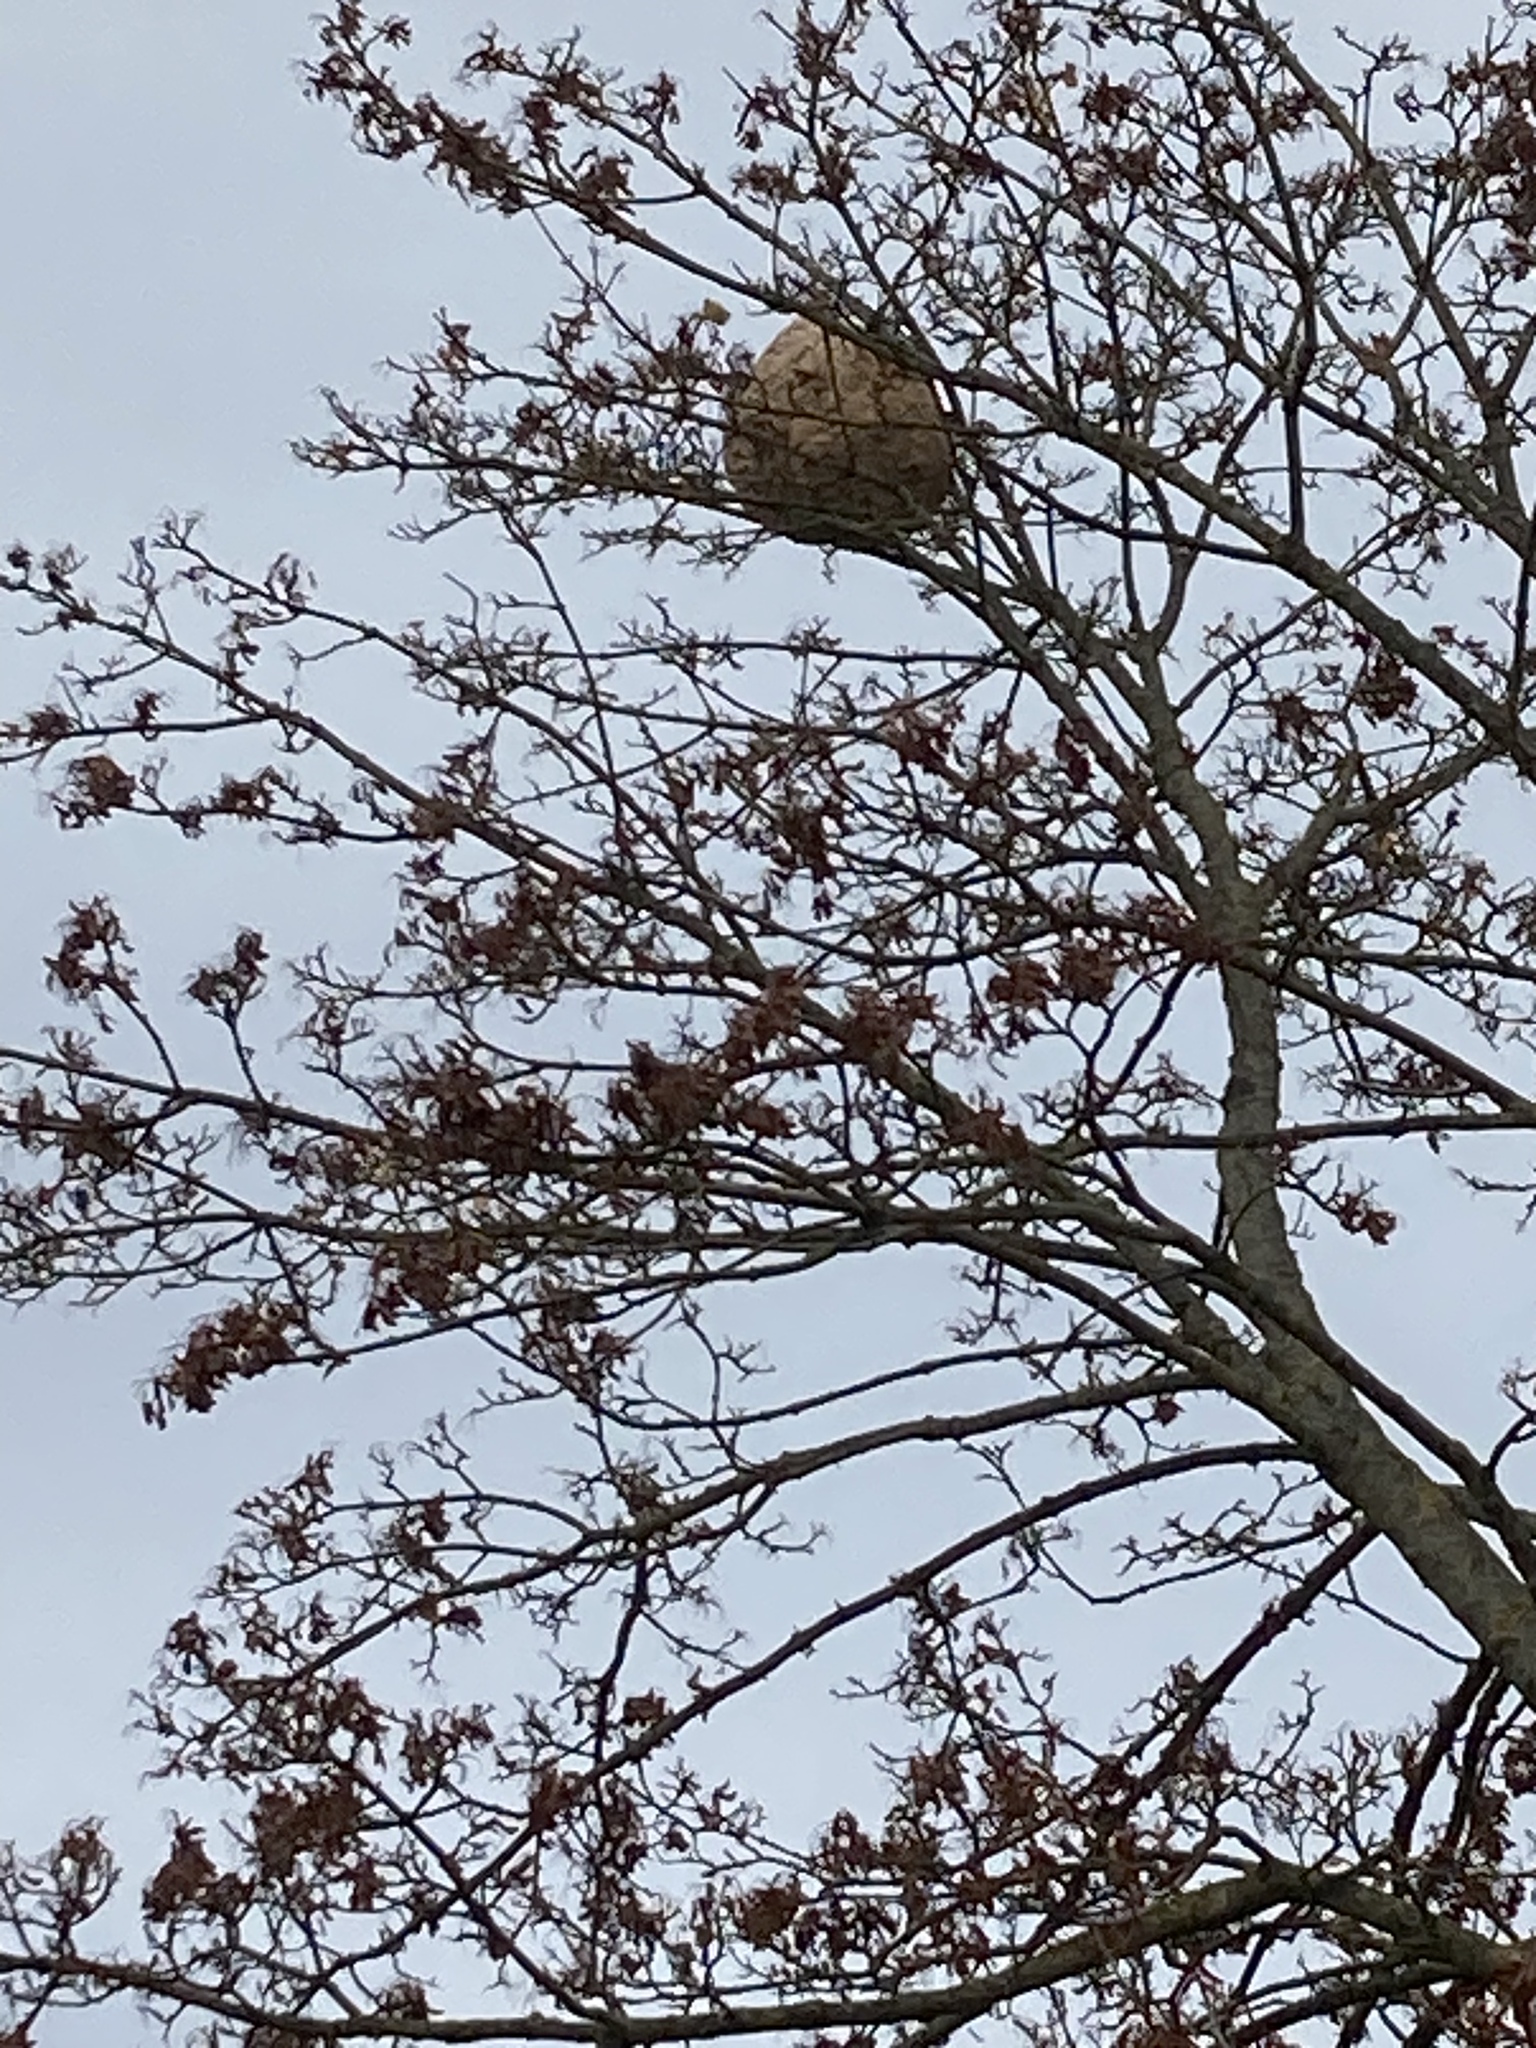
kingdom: Animalia
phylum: Arthropoda
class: Insecta
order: Hymenoptera
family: Vespidae
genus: Vespa
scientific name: Vespa velutina
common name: Asian hornet
